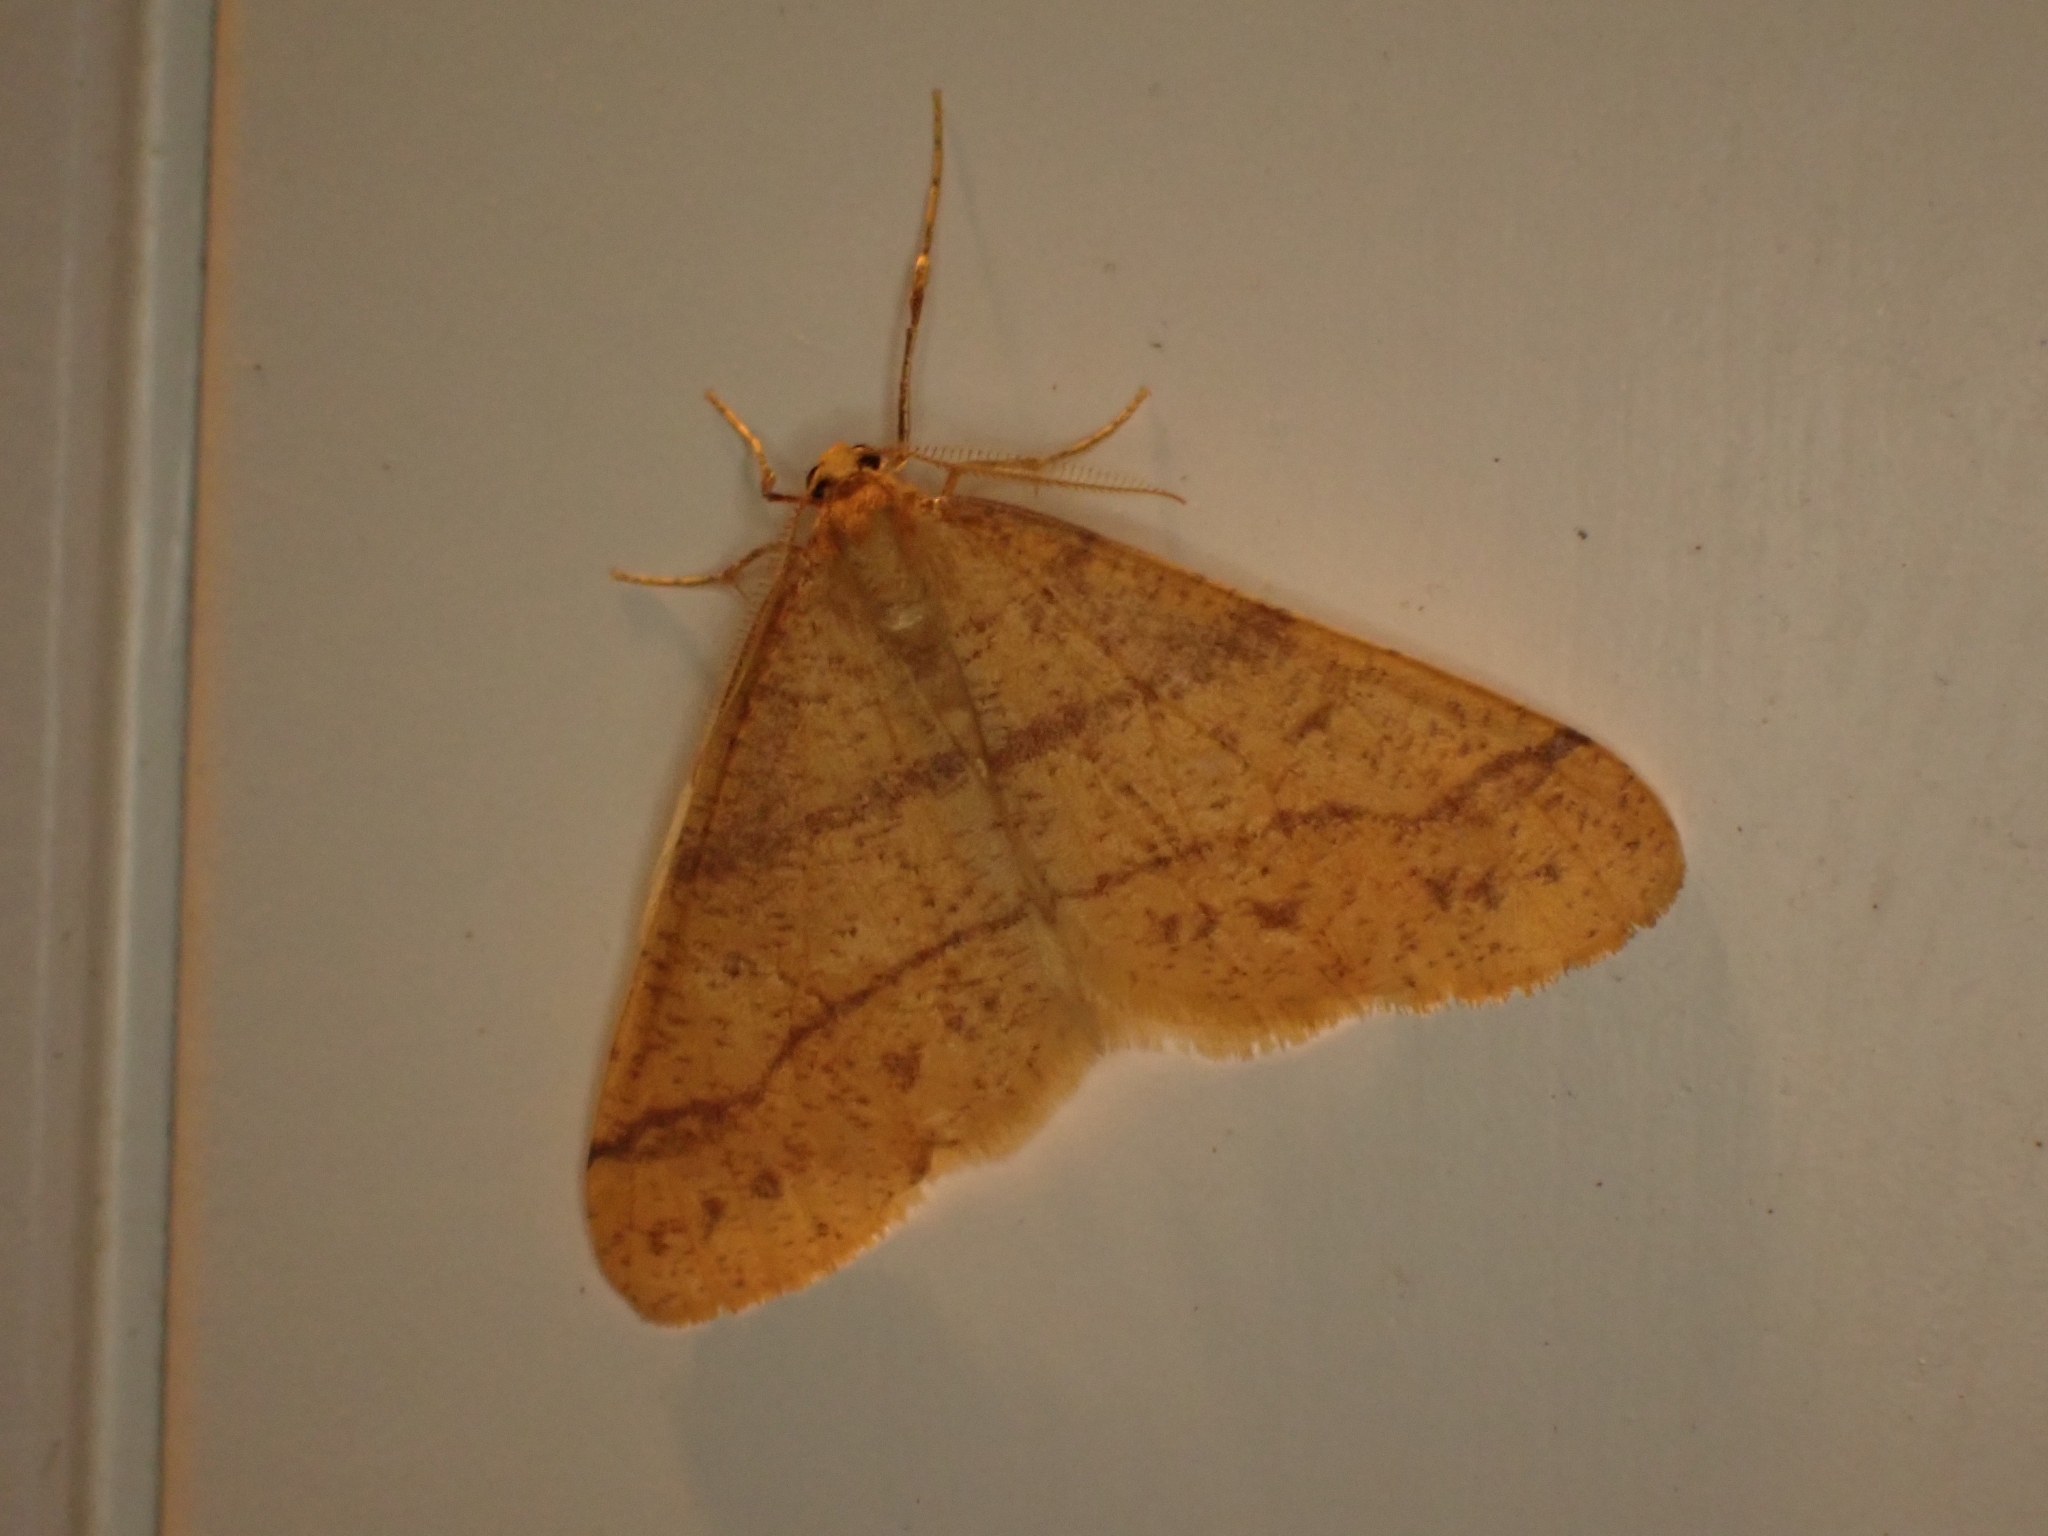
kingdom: Animalia
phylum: Arthropoda
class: Insecta
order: Lepidoptera
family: Geometridae
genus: Agriopis
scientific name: Agriopis aurantiaria
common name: Scarce umber
